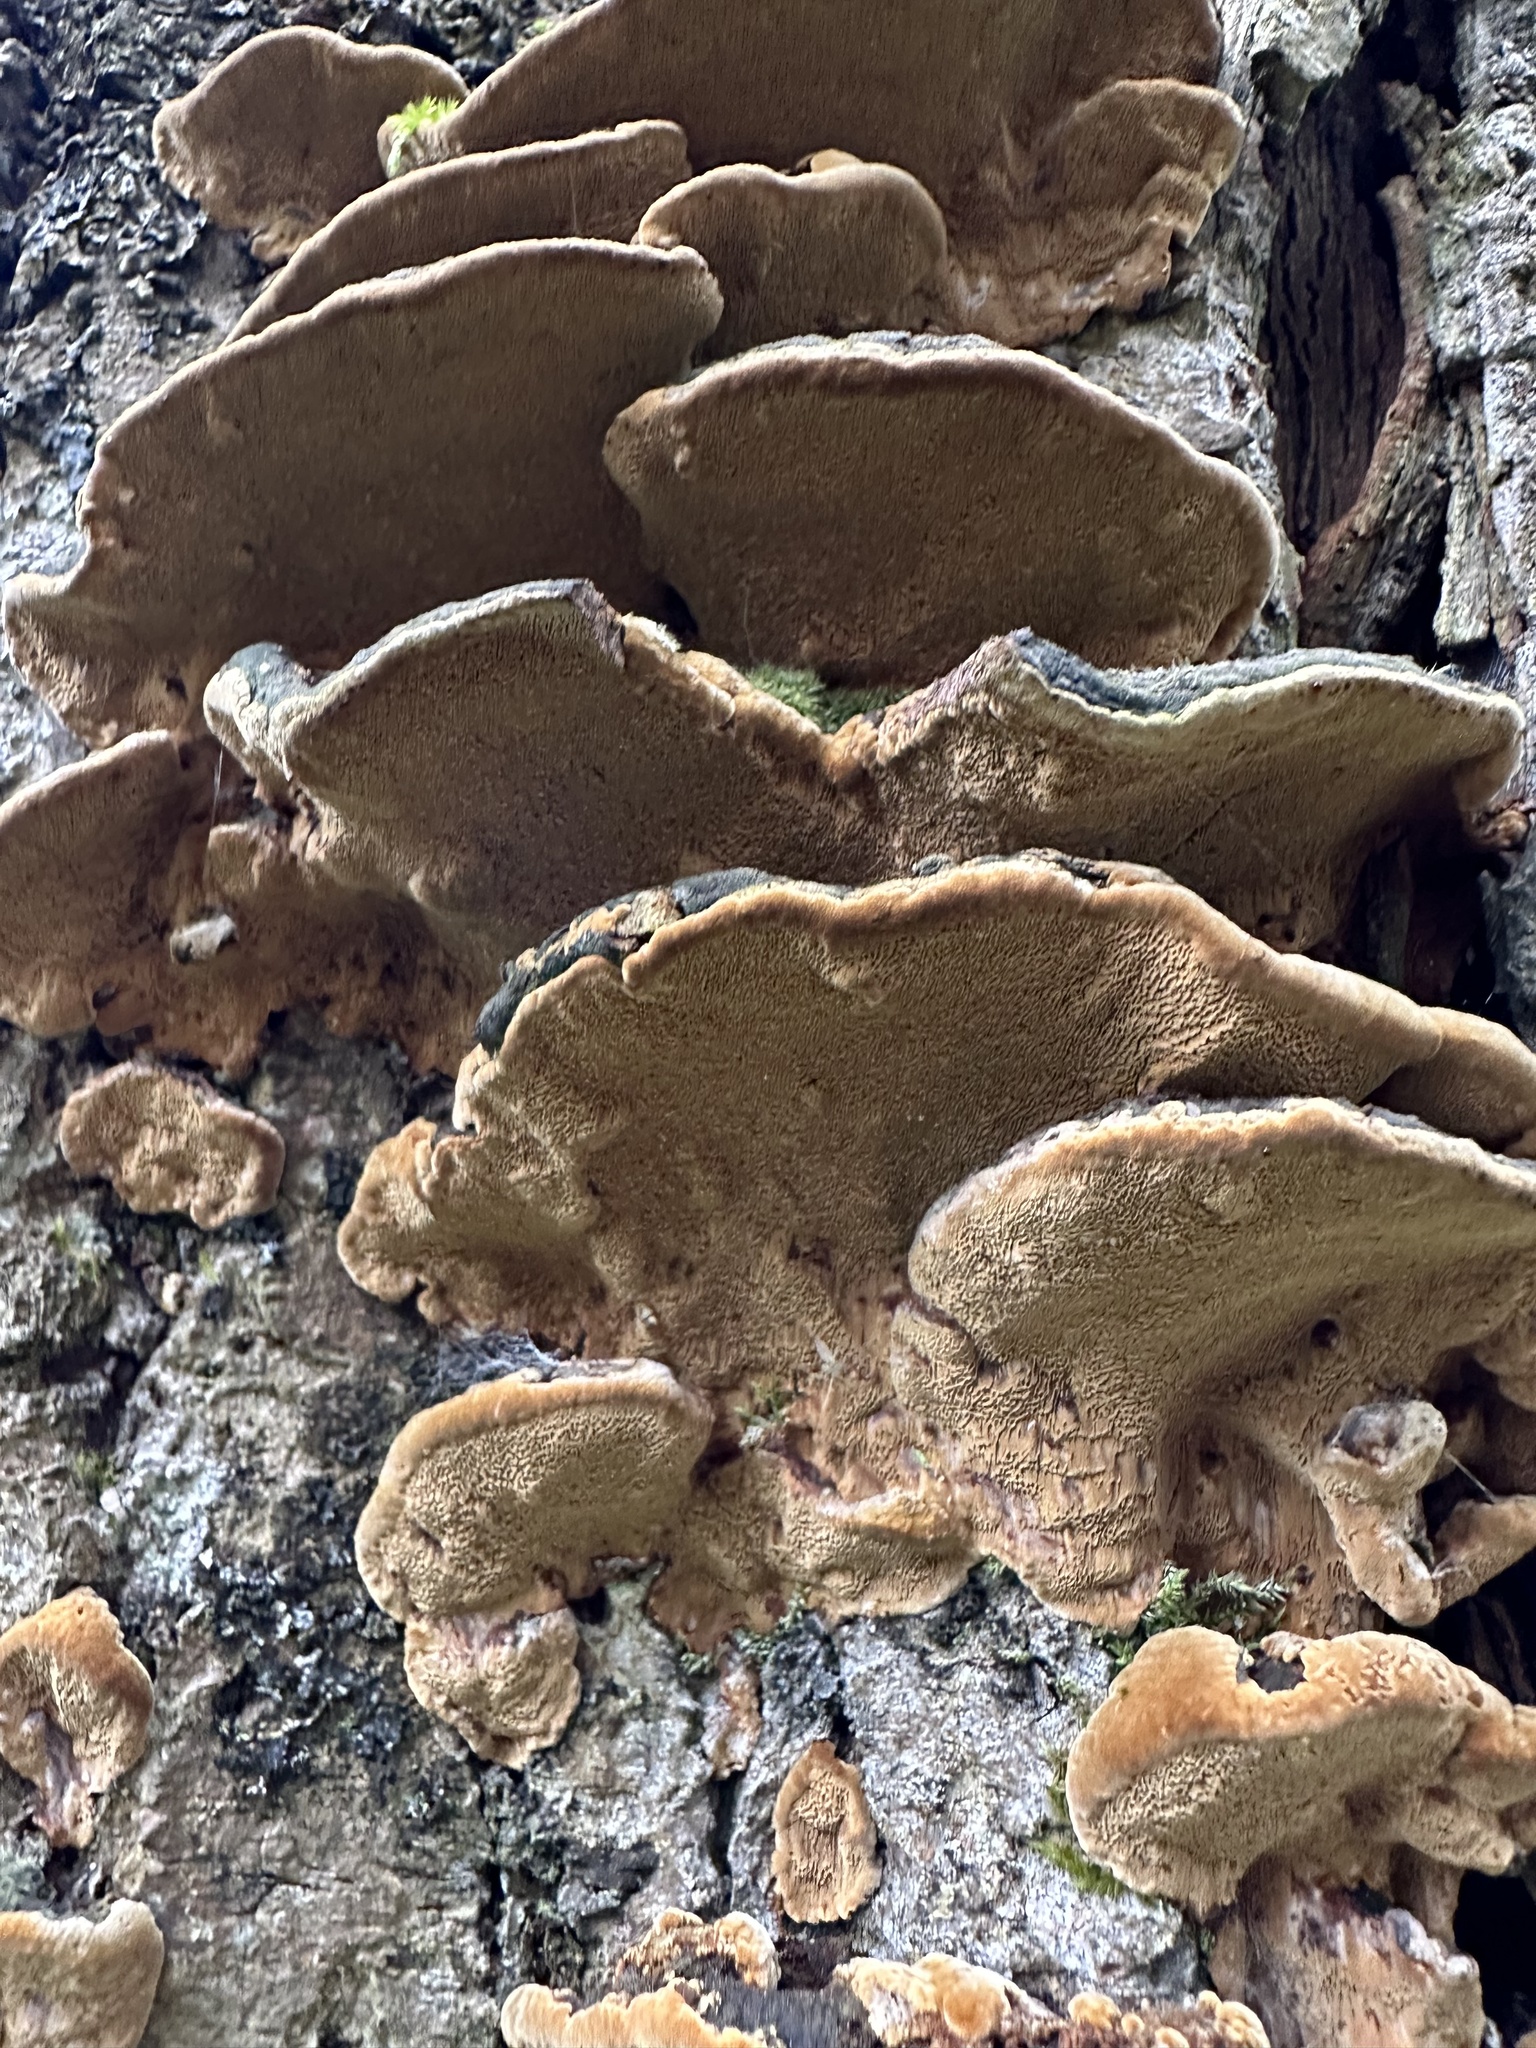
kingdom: Fungi
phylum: Basidiomycota
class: Agaricomycetes
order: Hymenochaetales
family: Hymenochaetaceae
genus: Phellinopsis
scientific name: Phellinopsis conchata
